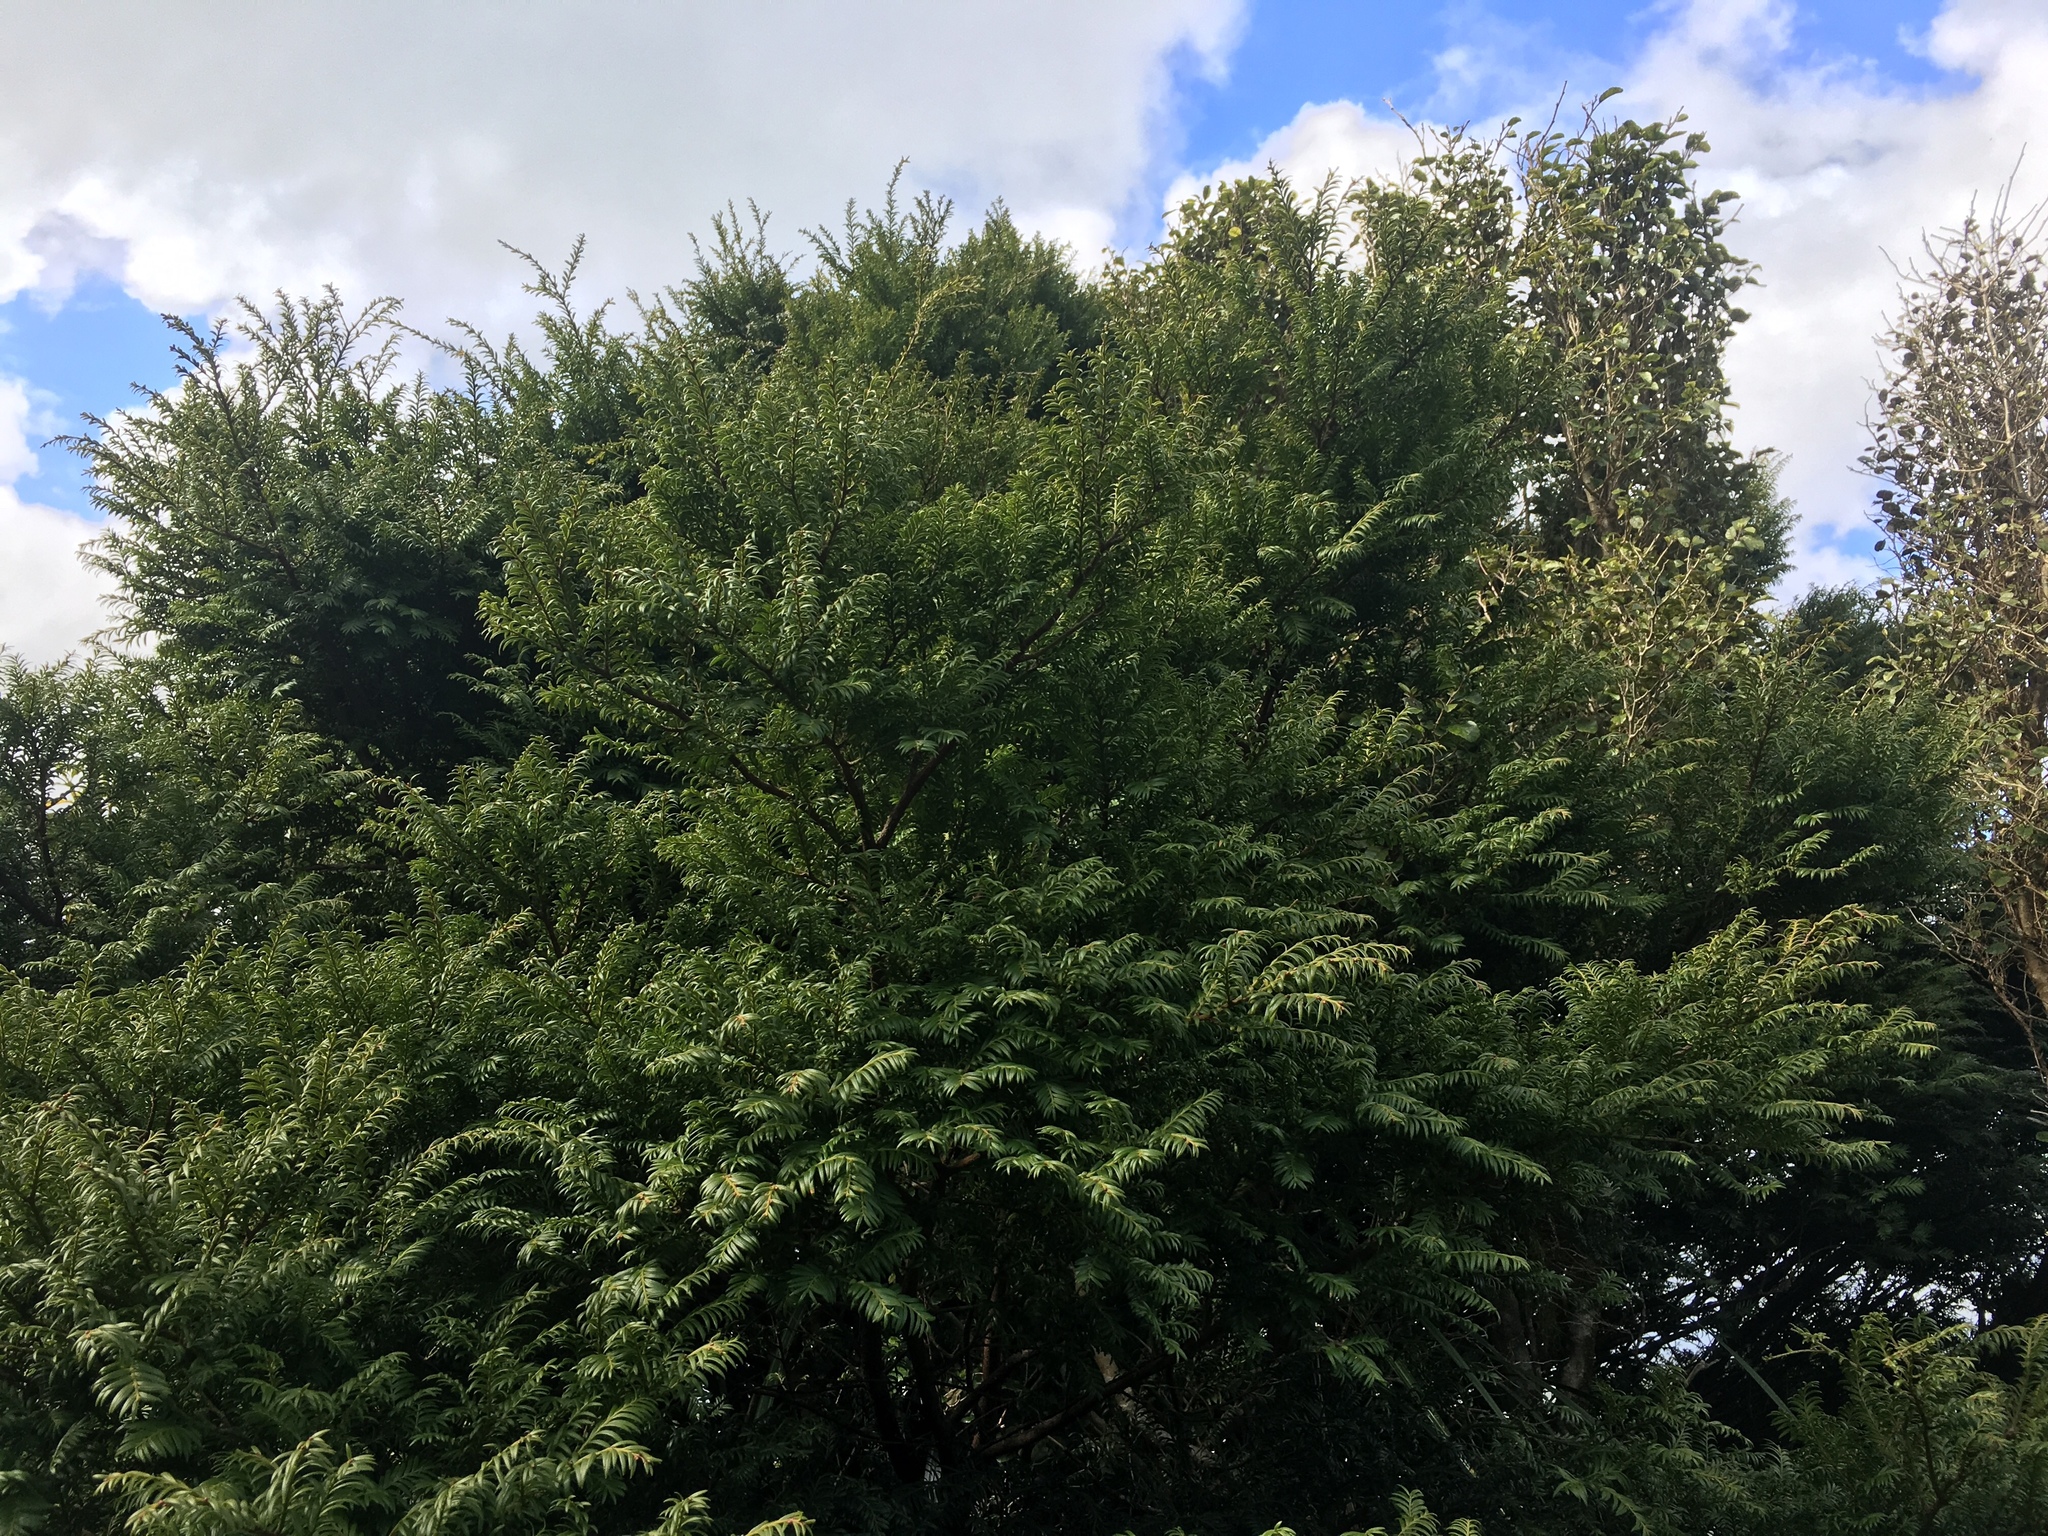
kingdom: Plantae
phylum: Tracheophyta
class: Pinopsida
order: Pinales
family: Podocarpaceae
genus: Prumnopitys
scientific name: Prumnopitys ferruginea
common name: Brown pine
